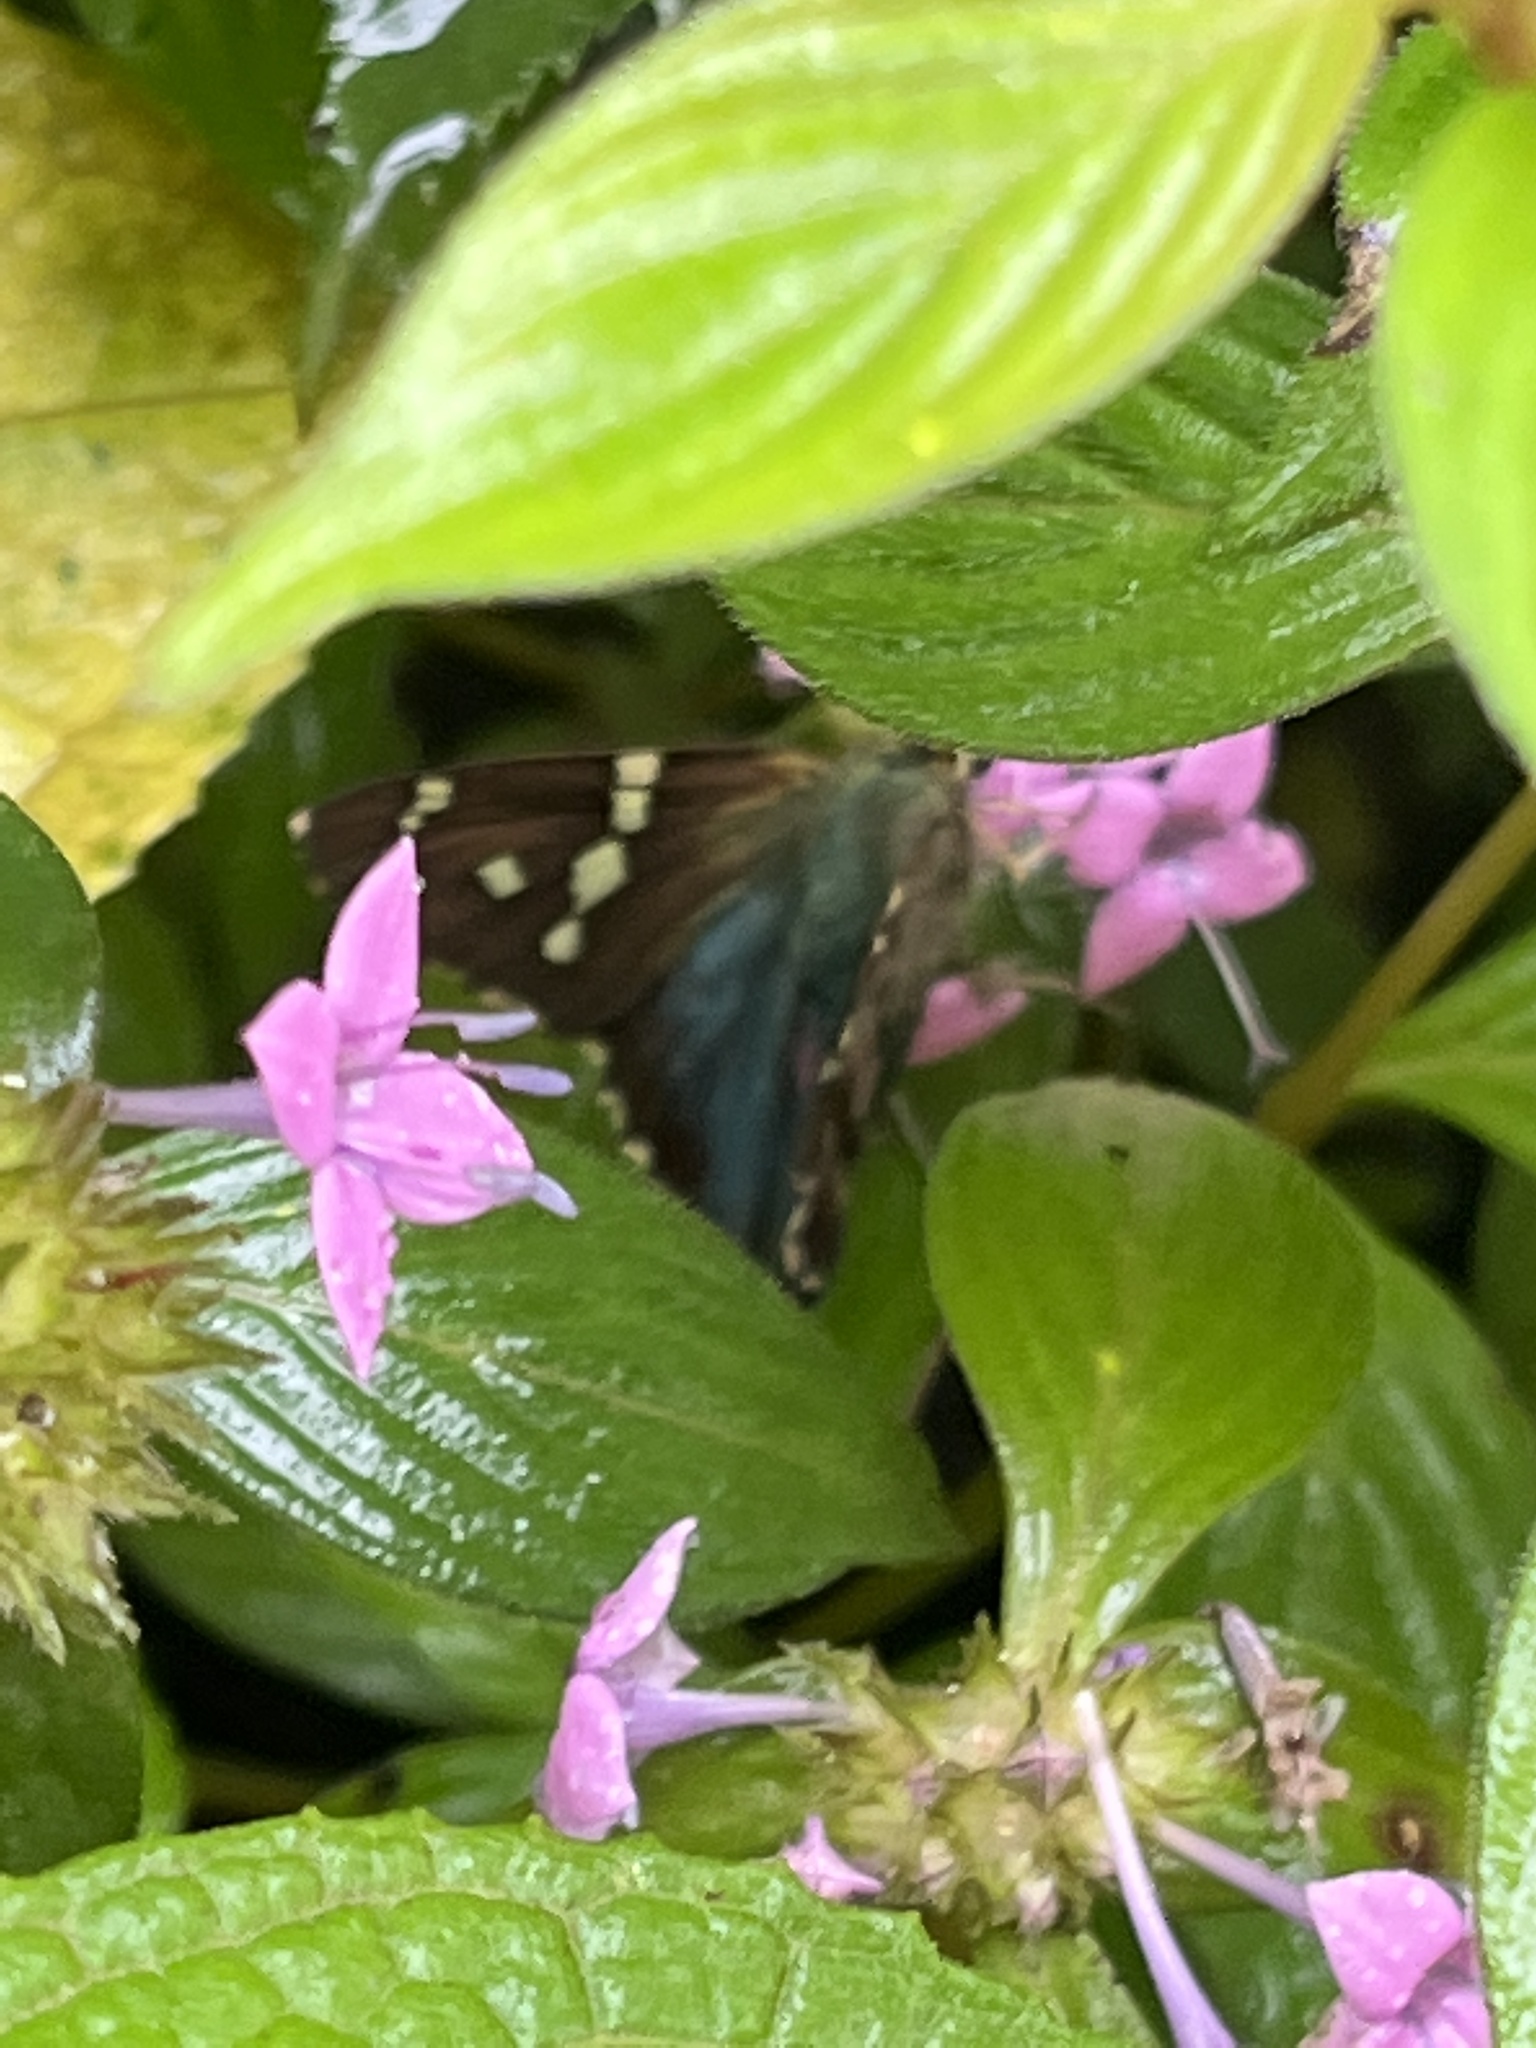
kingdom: Animalia
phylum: Arthropoda
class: Insecta
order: Lepidoptera
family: Hesperiidae
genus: Urbanus
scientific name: Urbanus proteus
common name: Long-tailed skipper
